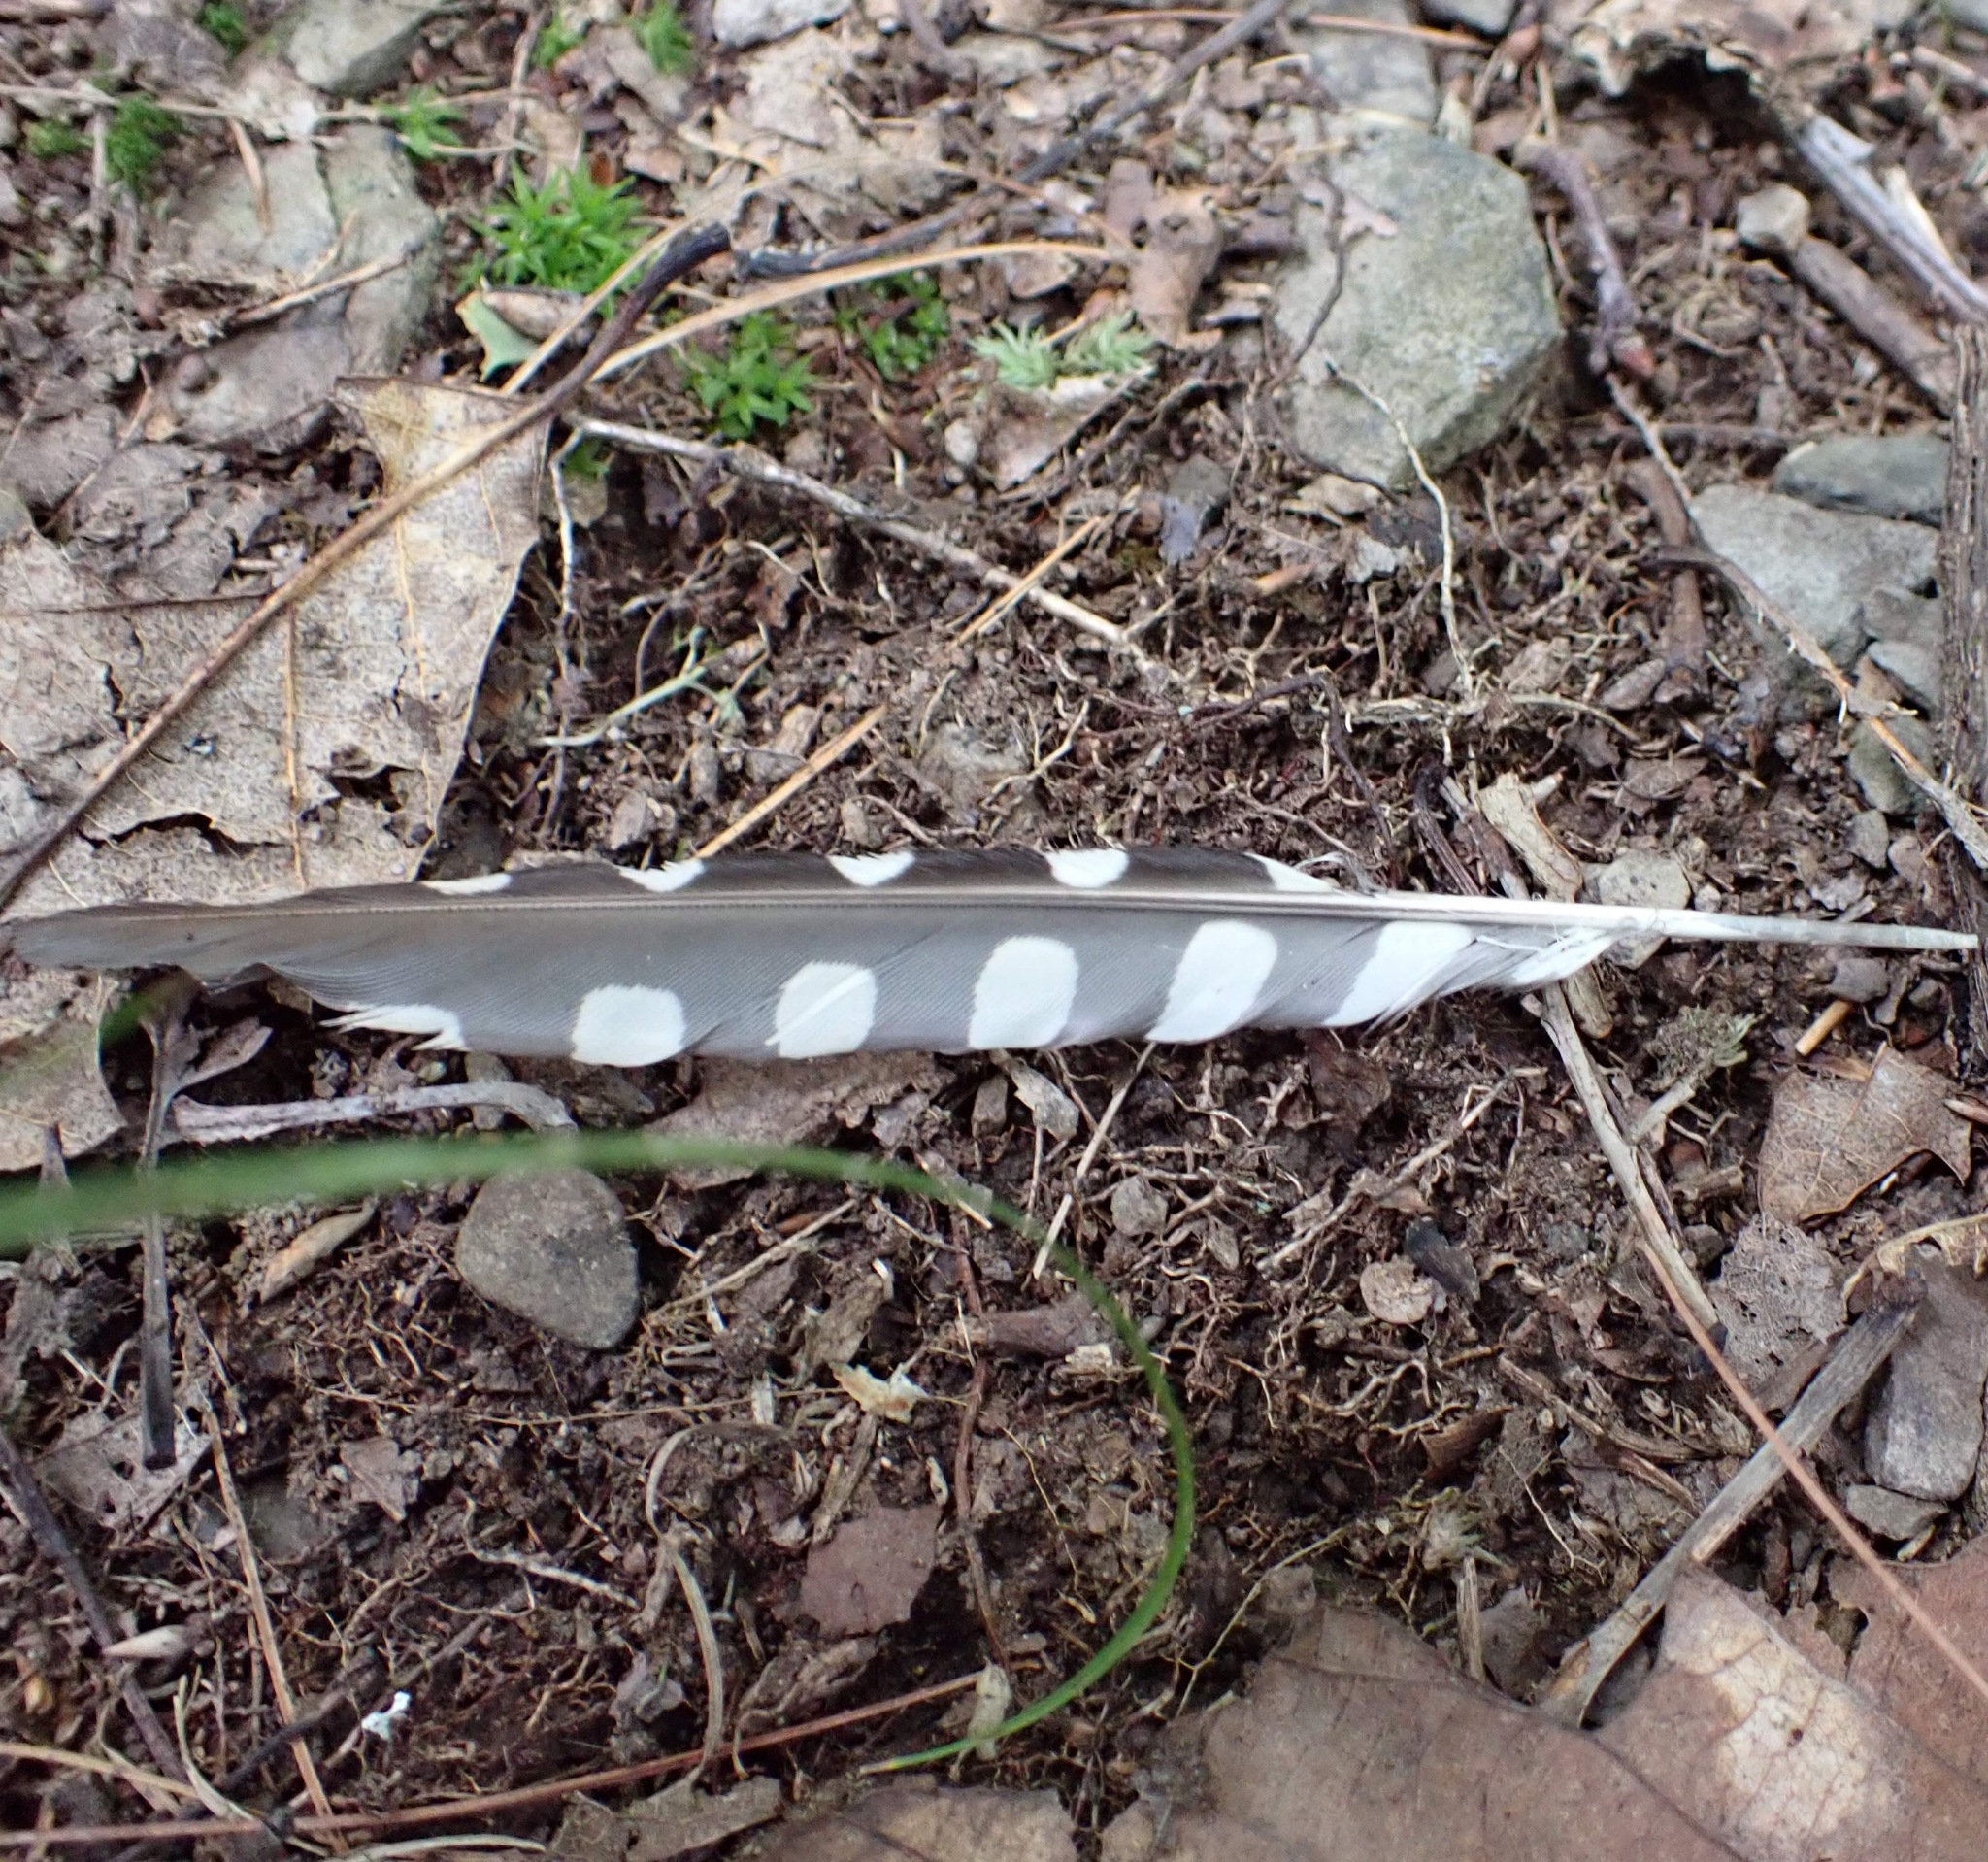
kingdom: Animalia
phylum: Chordata
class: Aves
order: Piciformes
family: Picidae
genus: Sphyrapicus
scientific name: Sphyrapicus varius
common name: Yellow-bellied sapsucker
